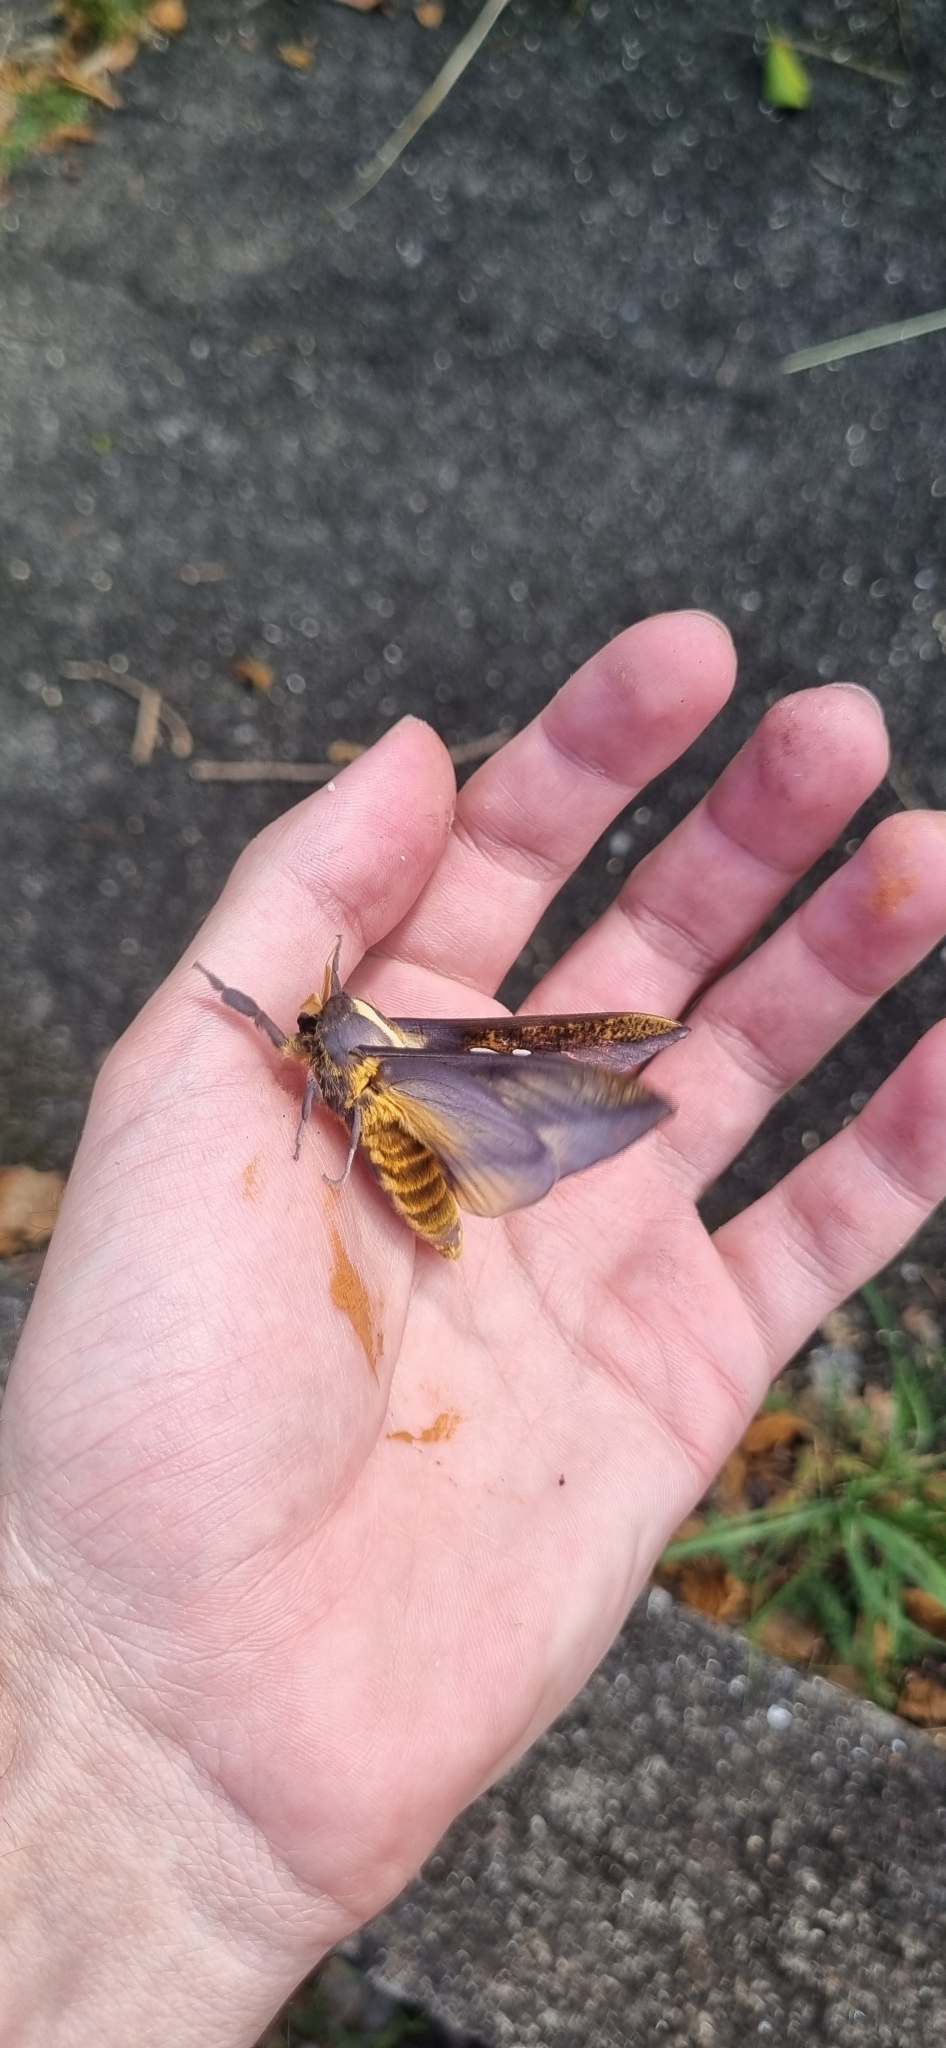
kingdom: Animalia
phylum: Arthropoda
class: Insecta
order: Lepidoptera
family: Saturniidae
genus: Adelowalkeria
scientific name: Adelowalkeria flavosignata
